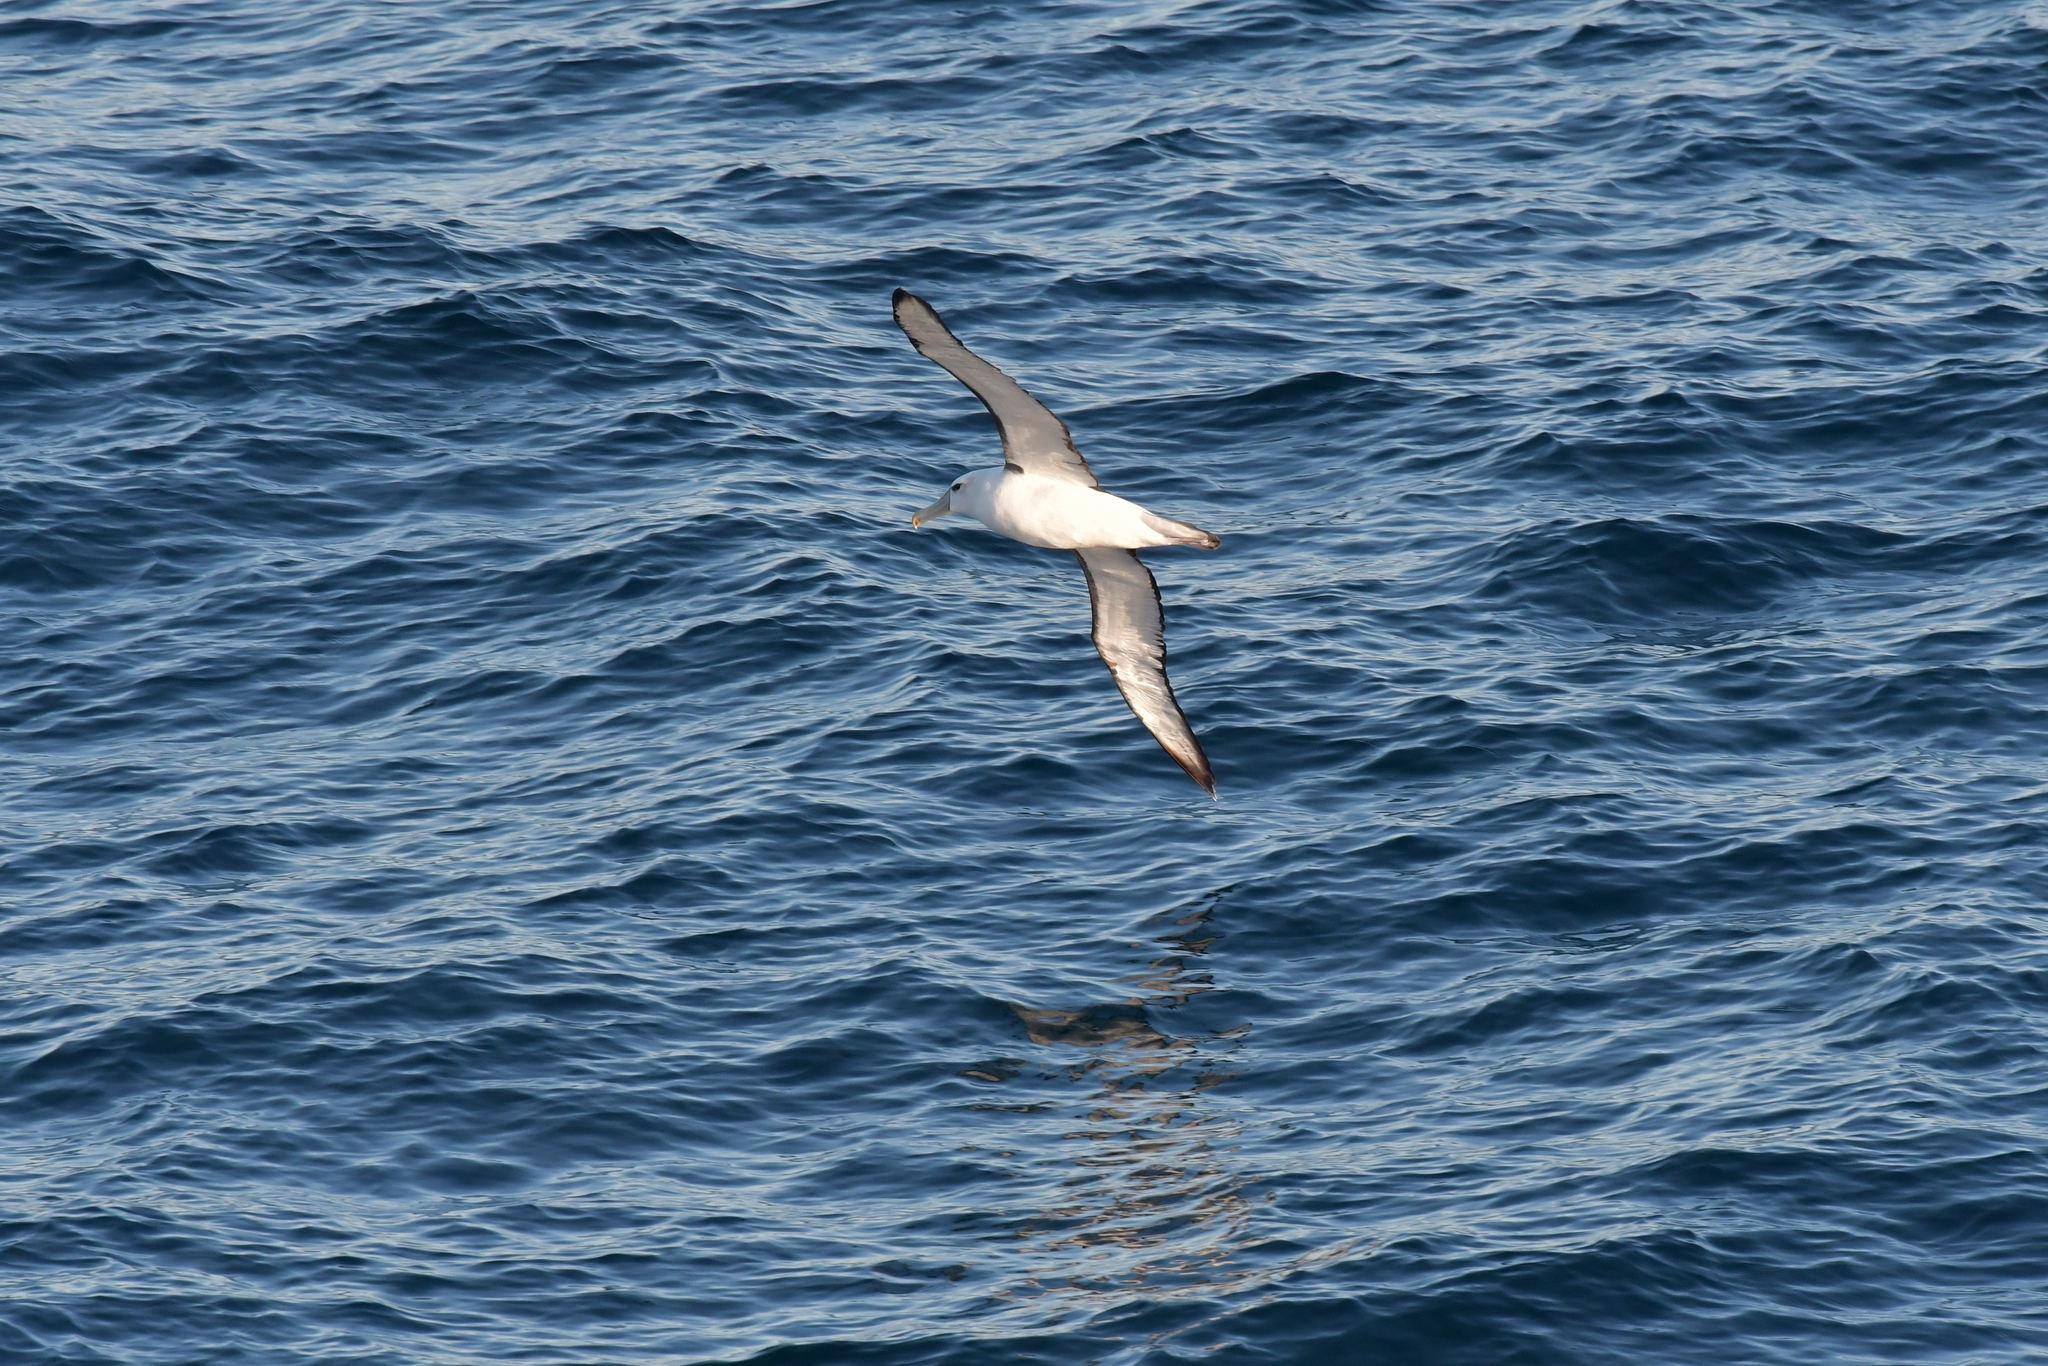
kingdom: Animalia
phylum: Chordata
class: Aves
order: Procellariiformes
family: Diomedeidae
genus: Thalassarche
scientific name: Thalassarche cauta
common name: Shy albatross
